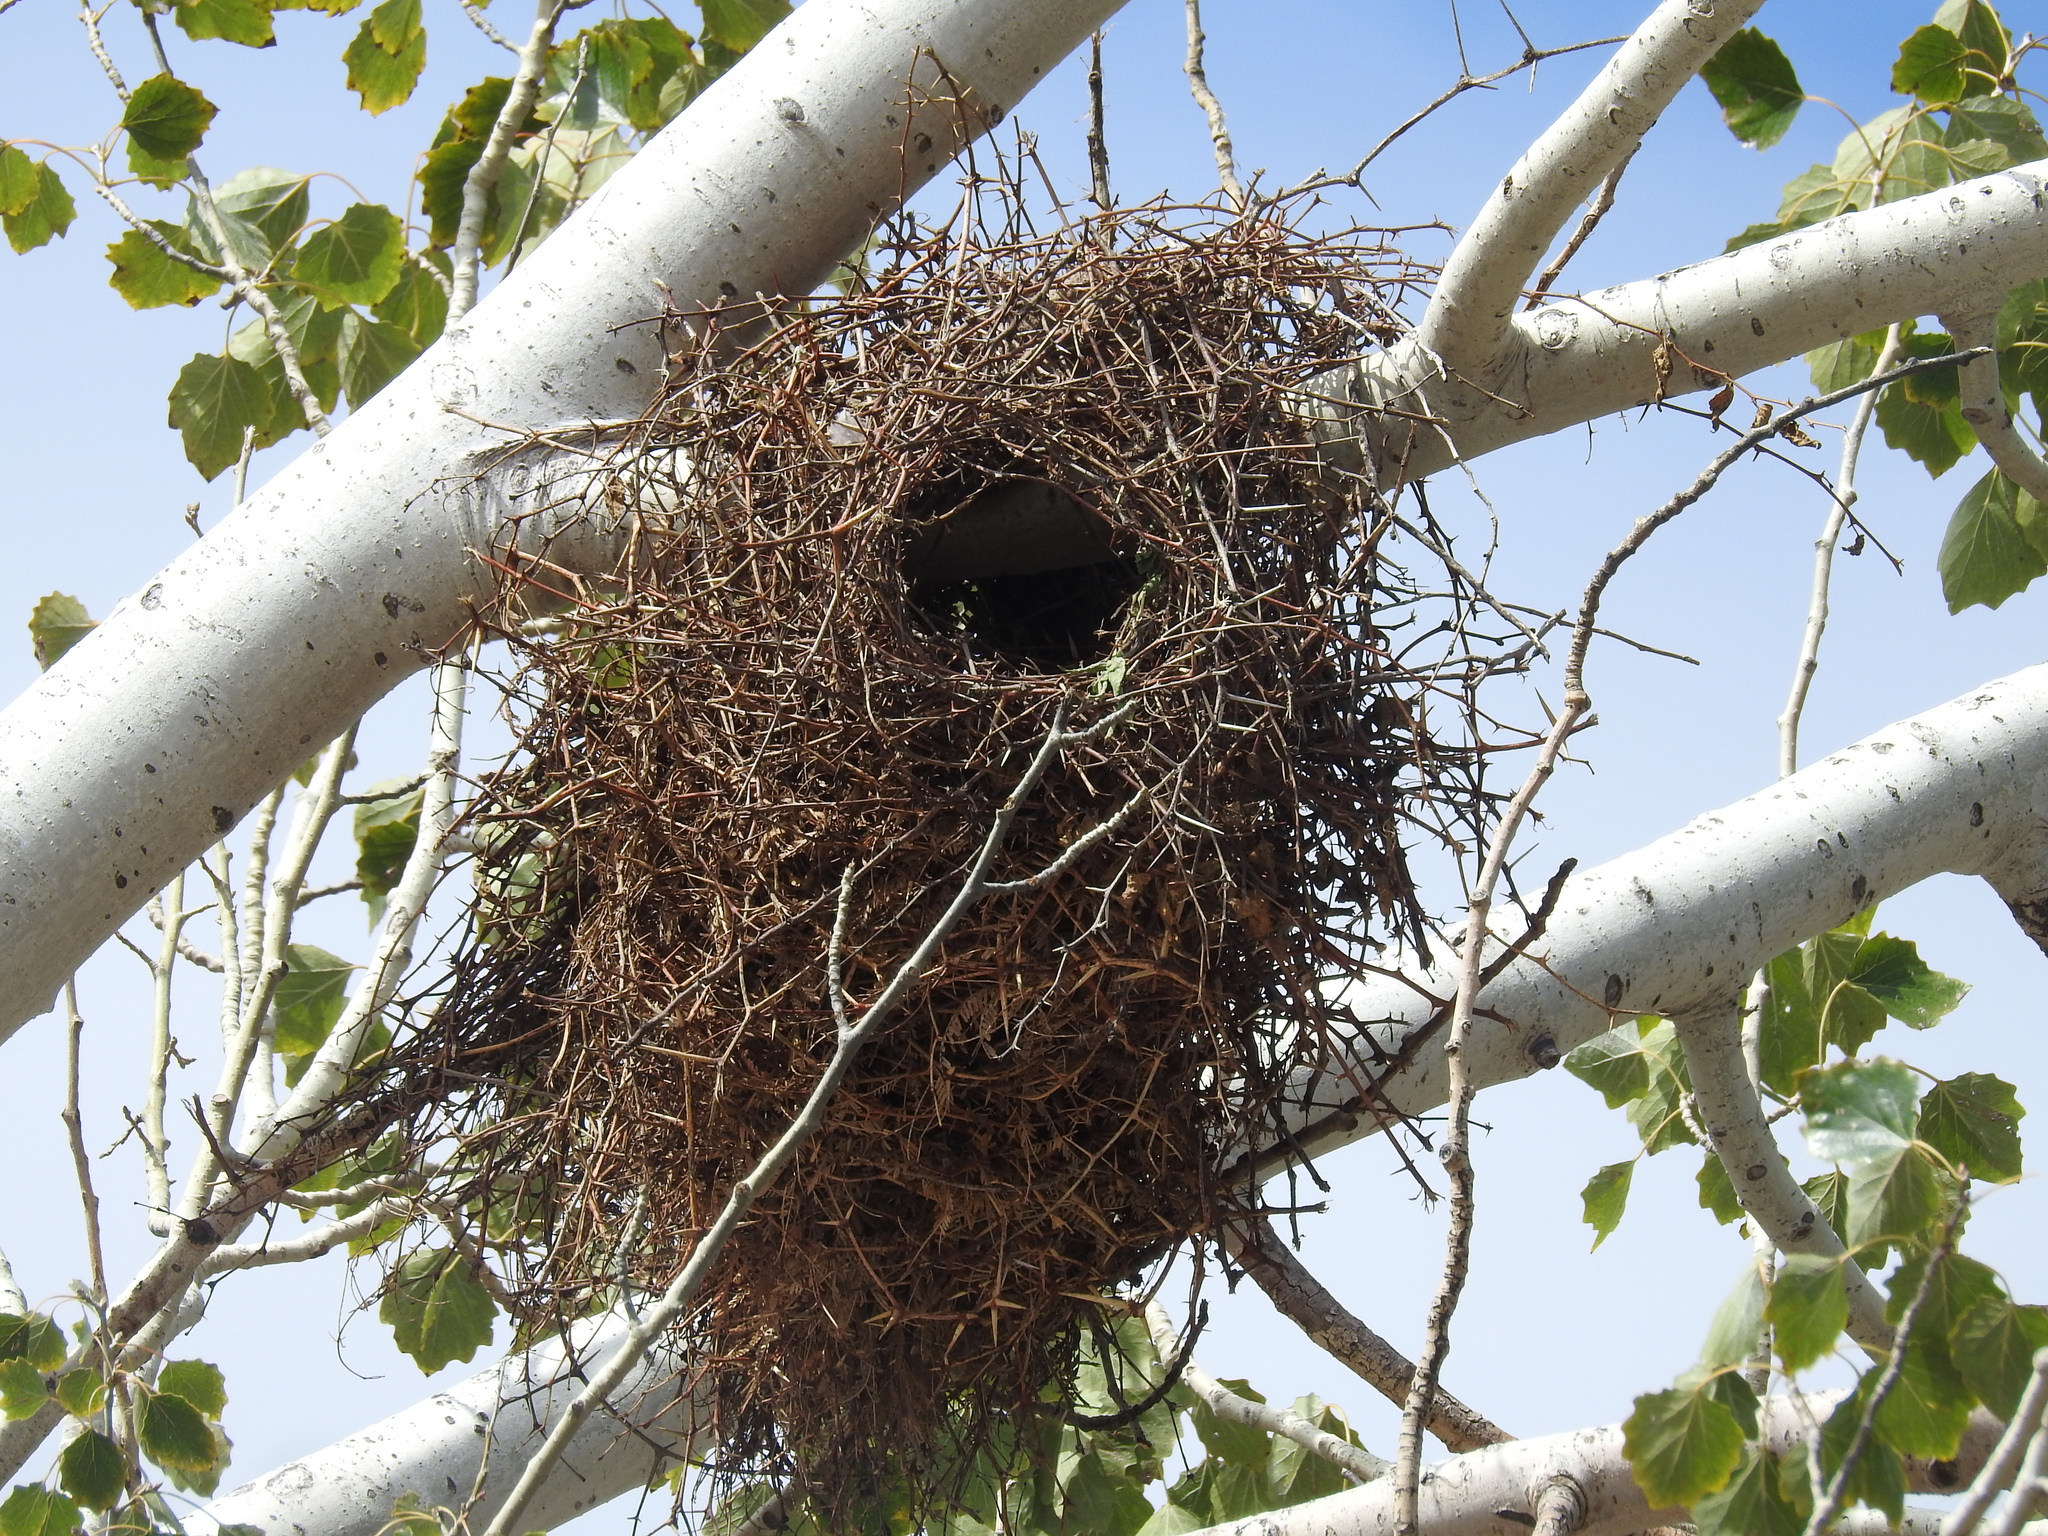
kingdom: Animalia
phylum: Chordata
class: Aves
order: Psittaciformes
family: Psittacidae
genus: Myiopsitta
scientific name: Myiopsitta monachus
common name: Monk parakeet
